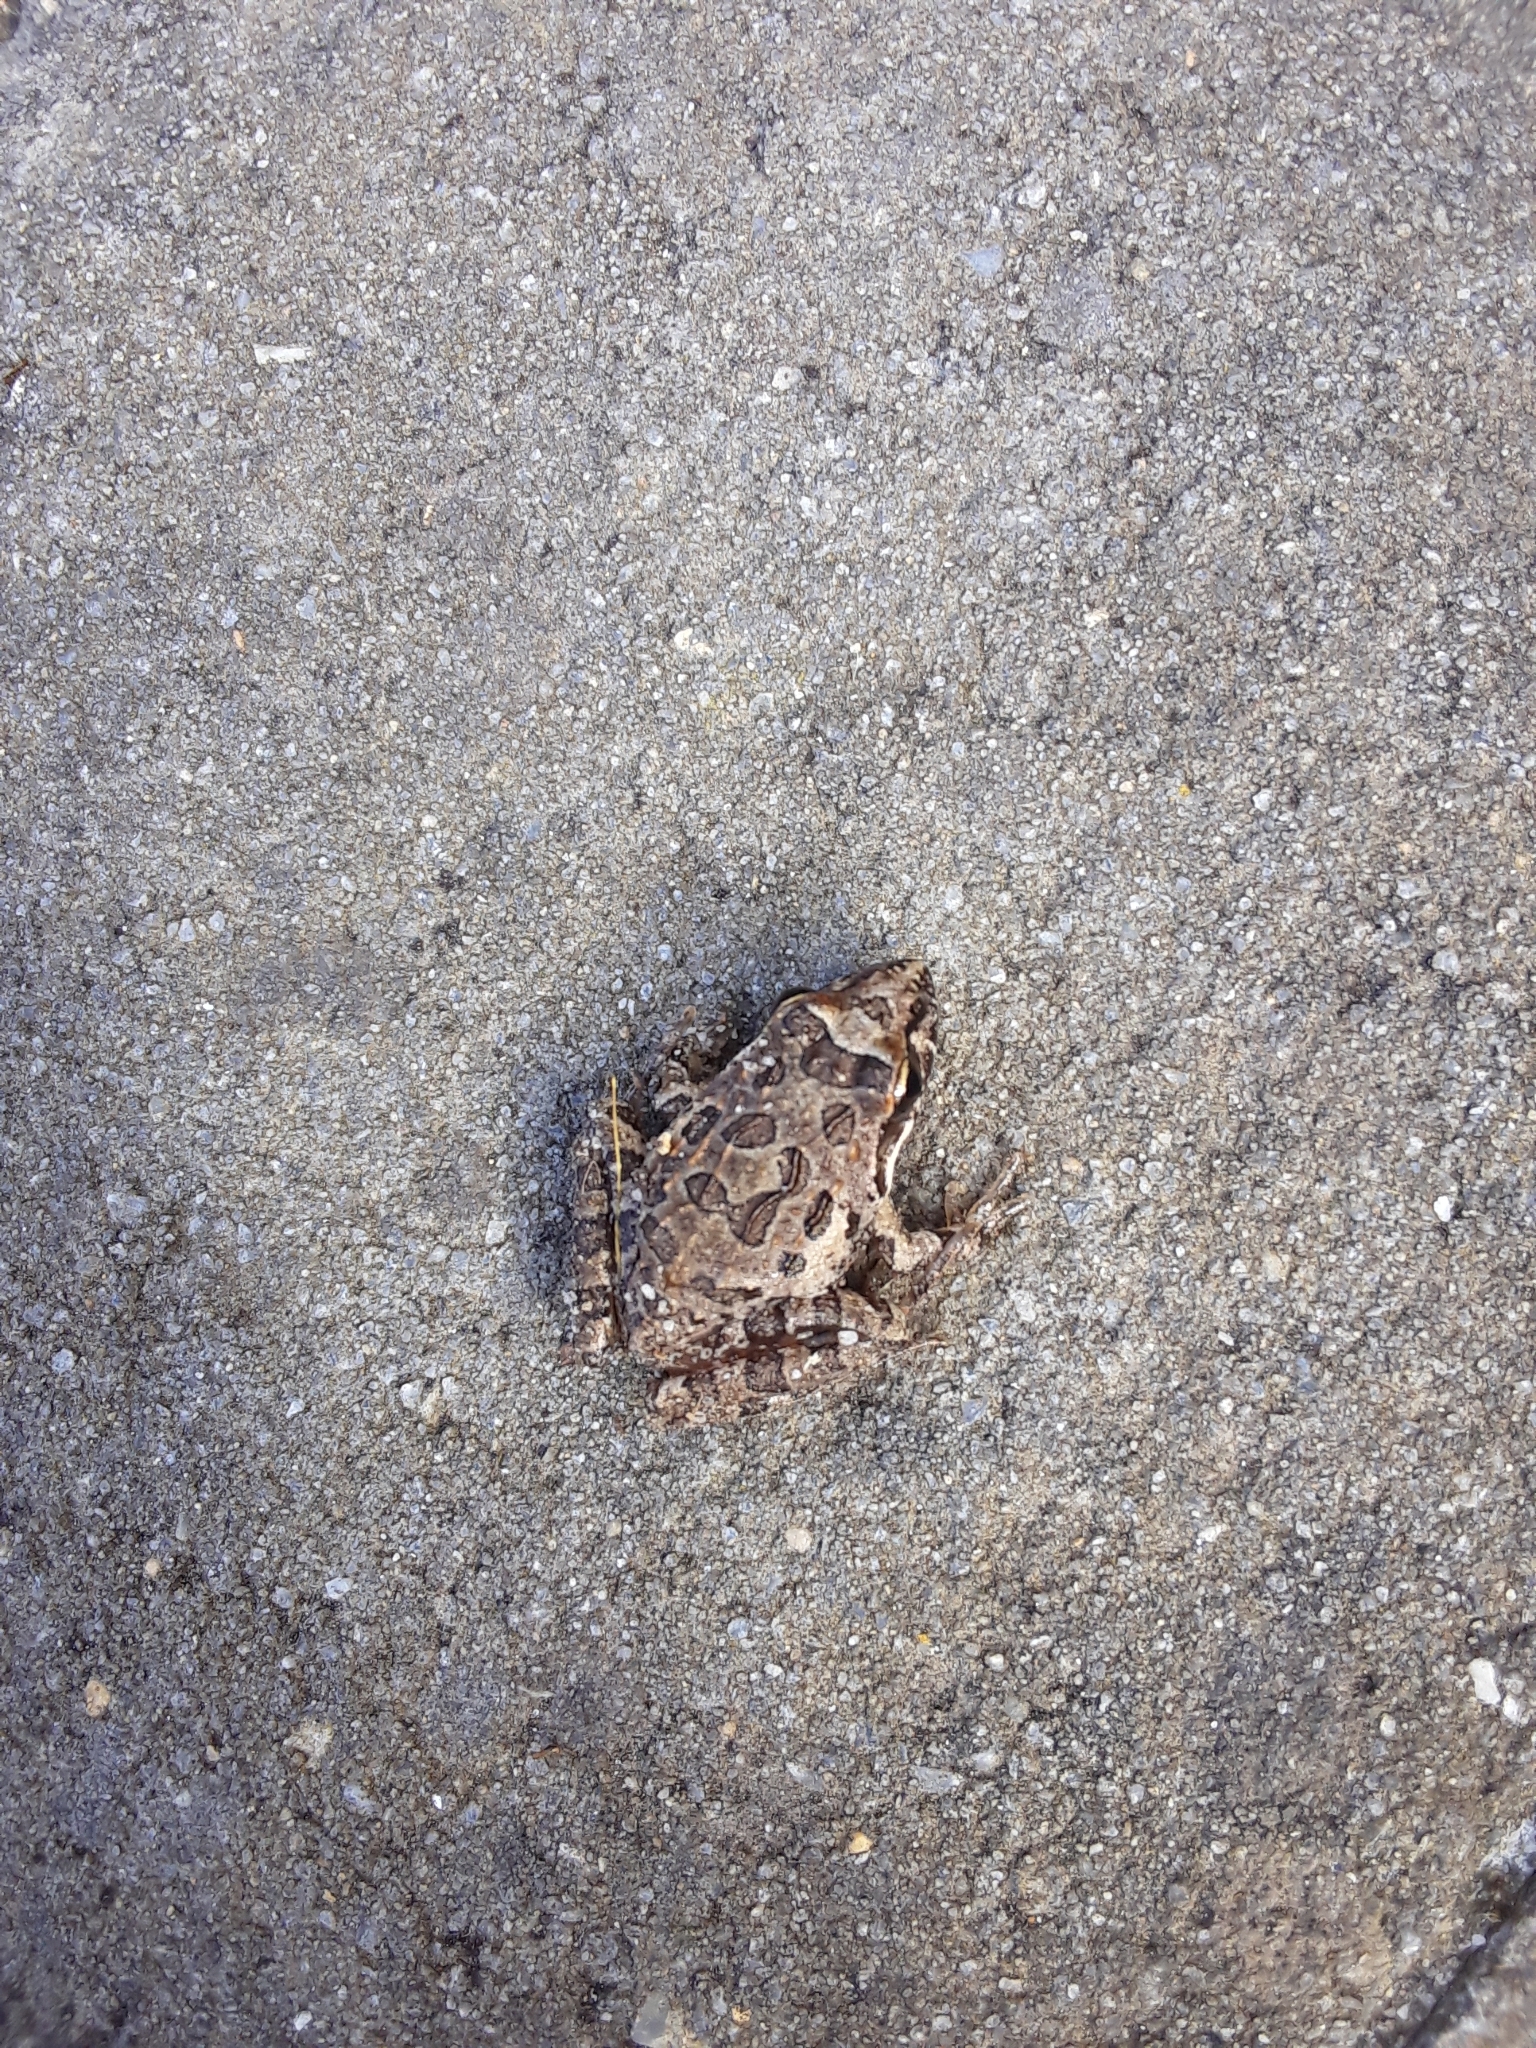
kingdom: Animalia
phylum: Chordata
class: Amphibia
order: Anura
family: Pyxicephalidae
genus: Strongylopus
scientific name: Strongylopus grayii
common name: Gray's stream frog
